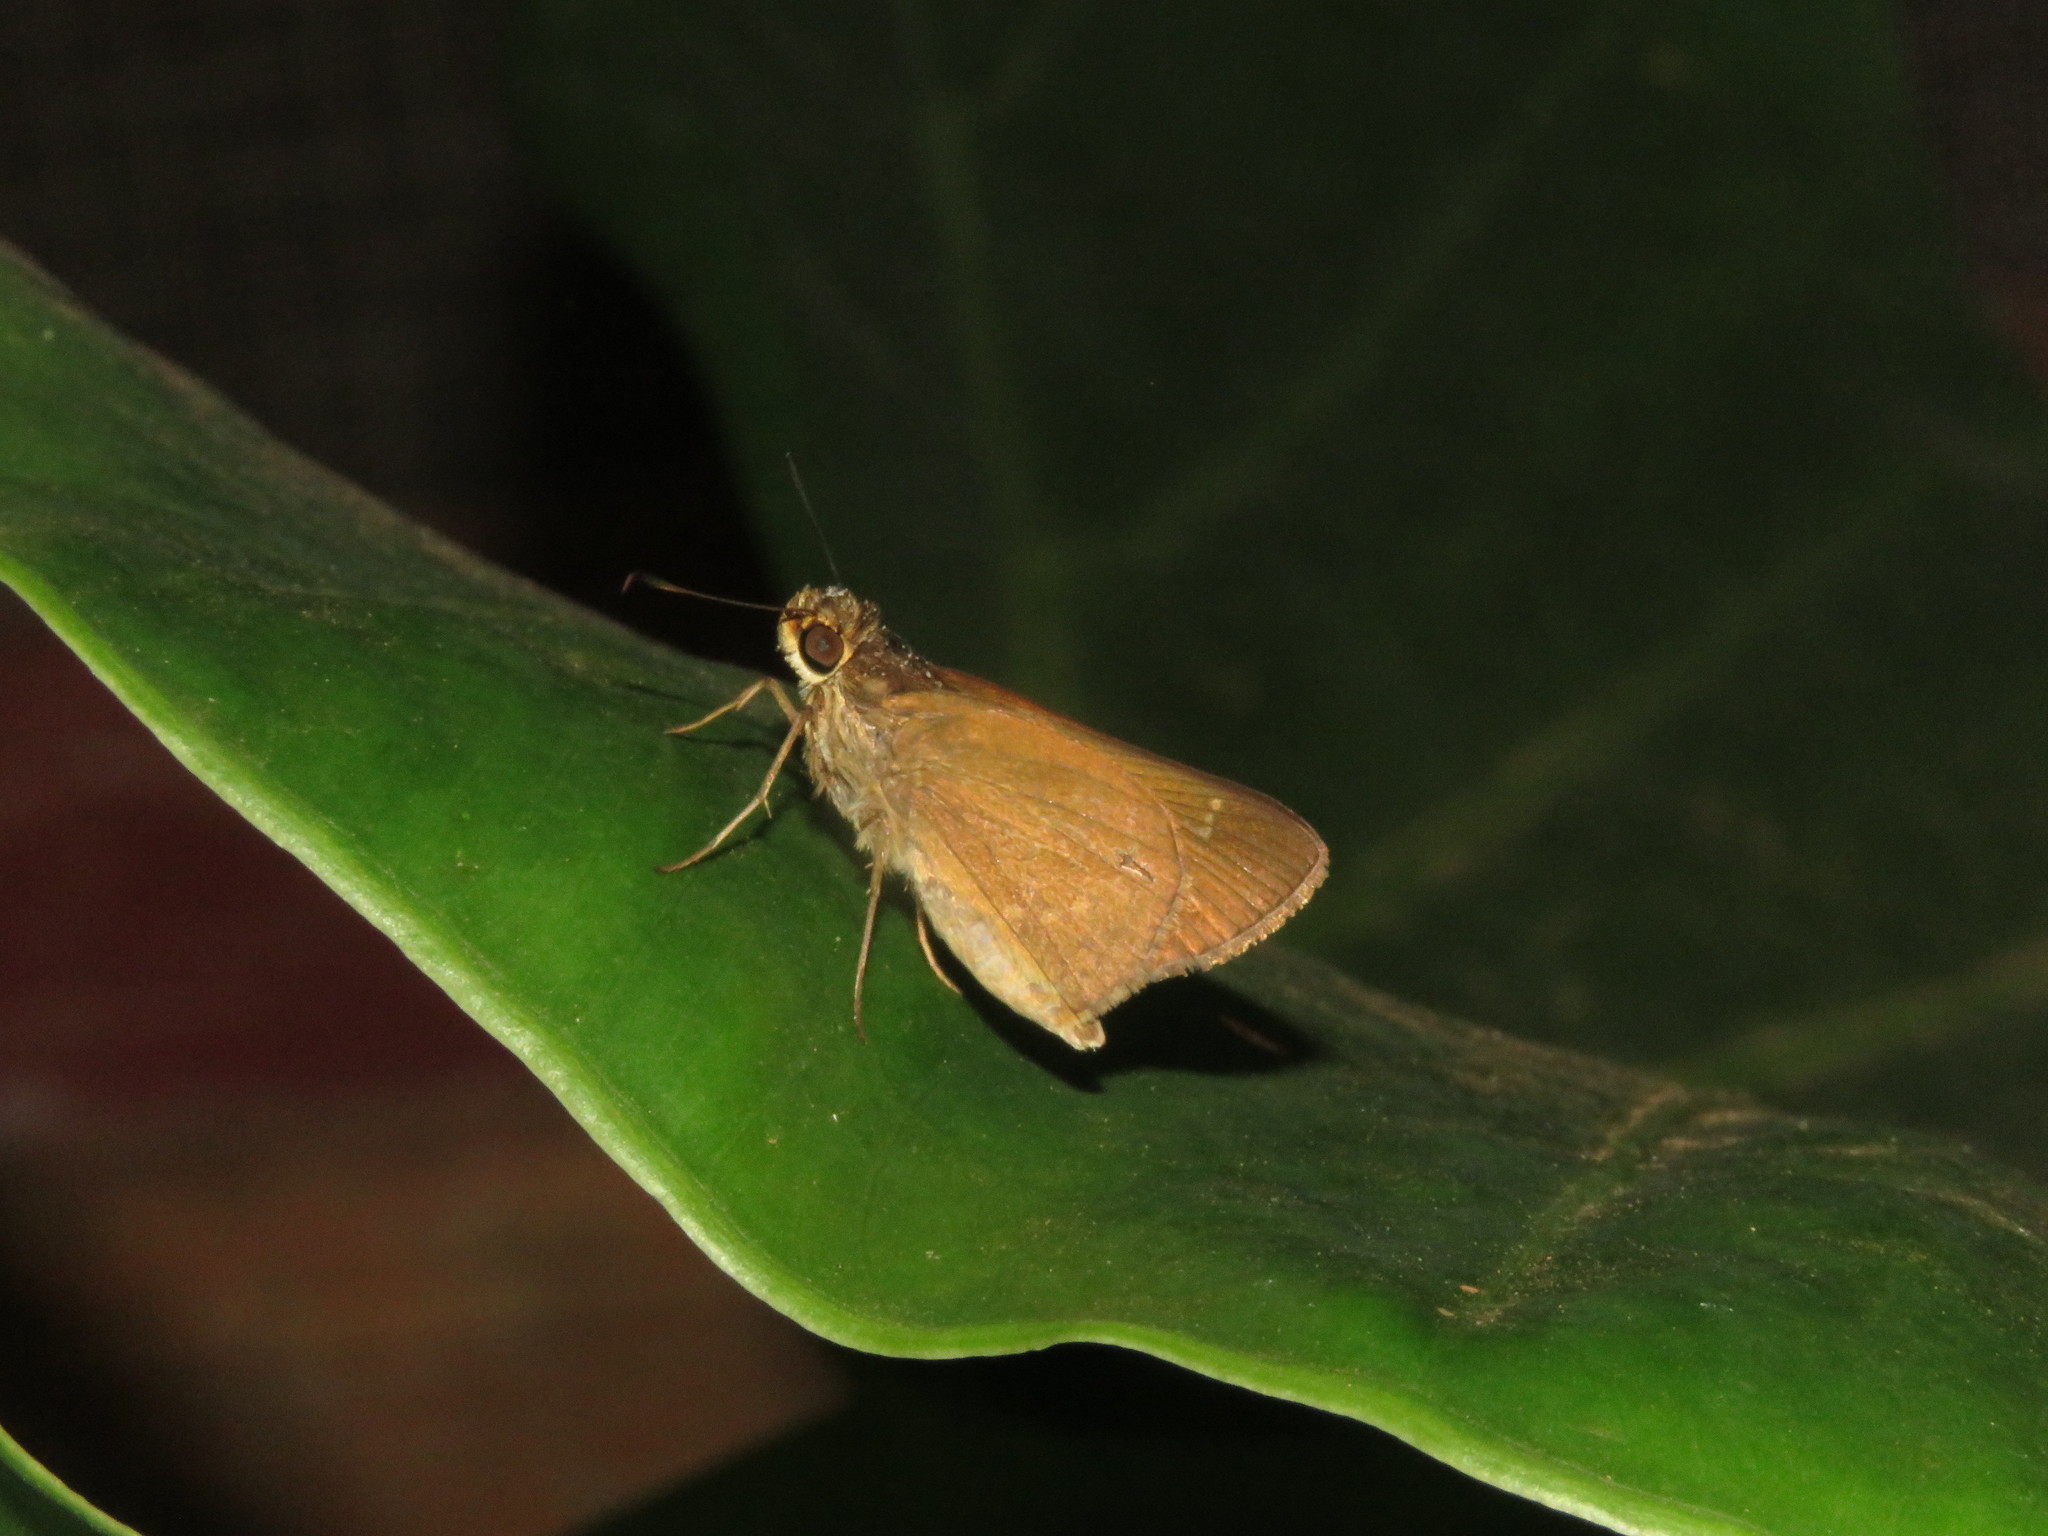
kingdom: Animalia
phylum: Arthropoda
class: Insecta
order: Lepidoptera
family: Hesperiidae
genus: Cymaenes
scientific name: Cymaenes tripunctus
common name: Dingy dotted skipper
